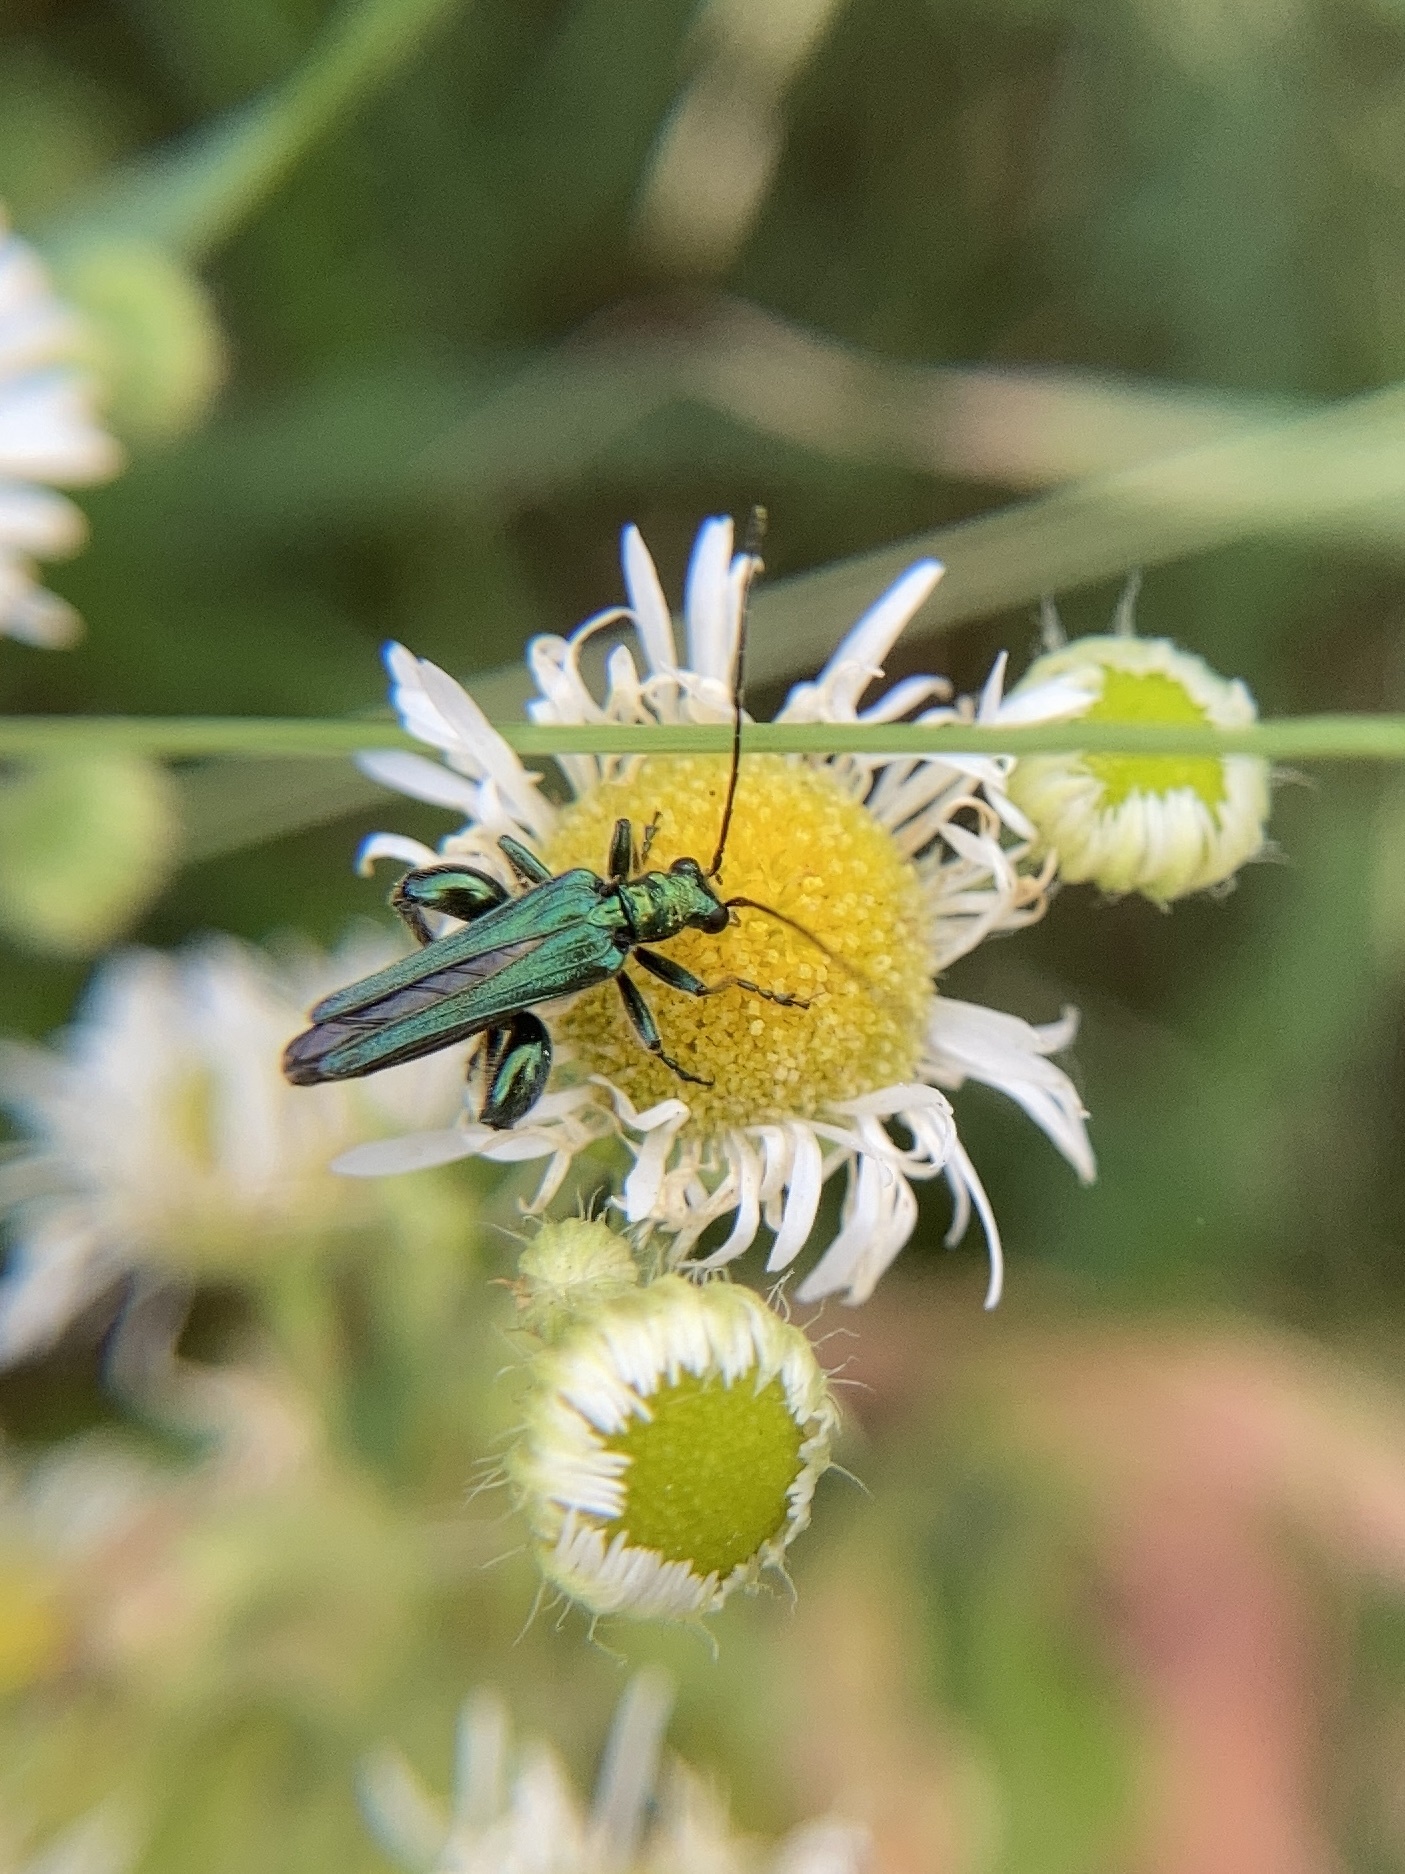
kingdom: Animalia
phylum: Arthropoda
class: Insecta
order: Coleoptera
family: Oedemeridae
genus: Oedemera
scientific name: Oedemera nobilis
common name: Swollen-thighed beetle
